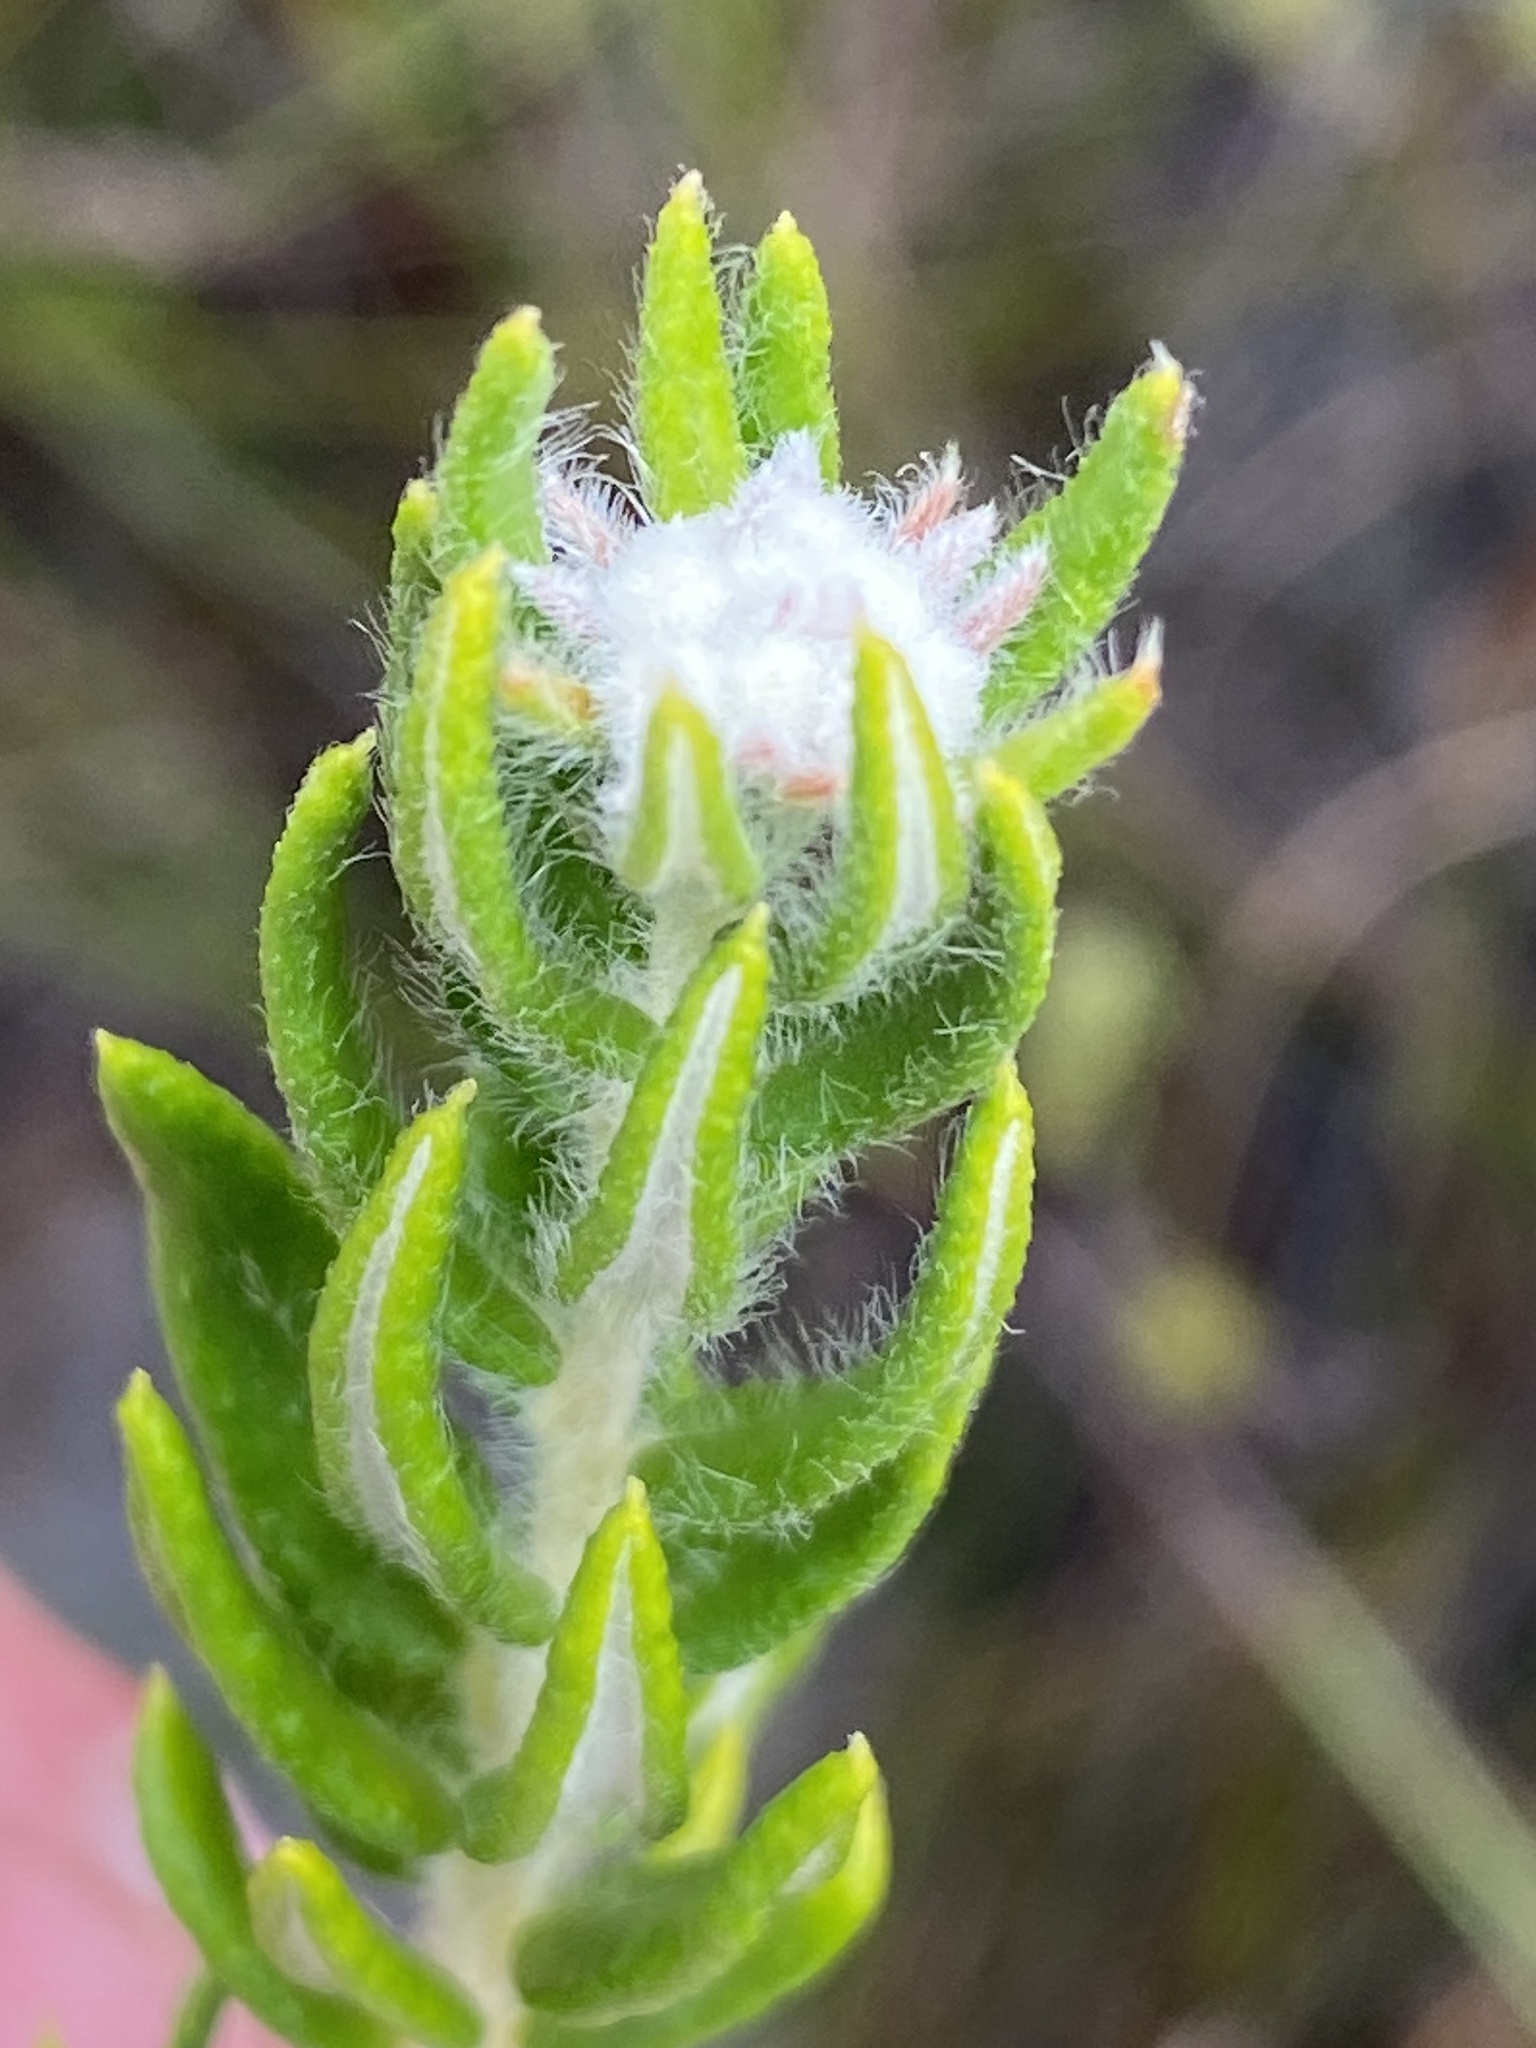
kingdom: Plantae
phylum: Tracheophyta
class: Magnoliopsida
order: Rosales
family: Rhamnaceae
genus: Phylica
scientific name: Phylica ampliata
